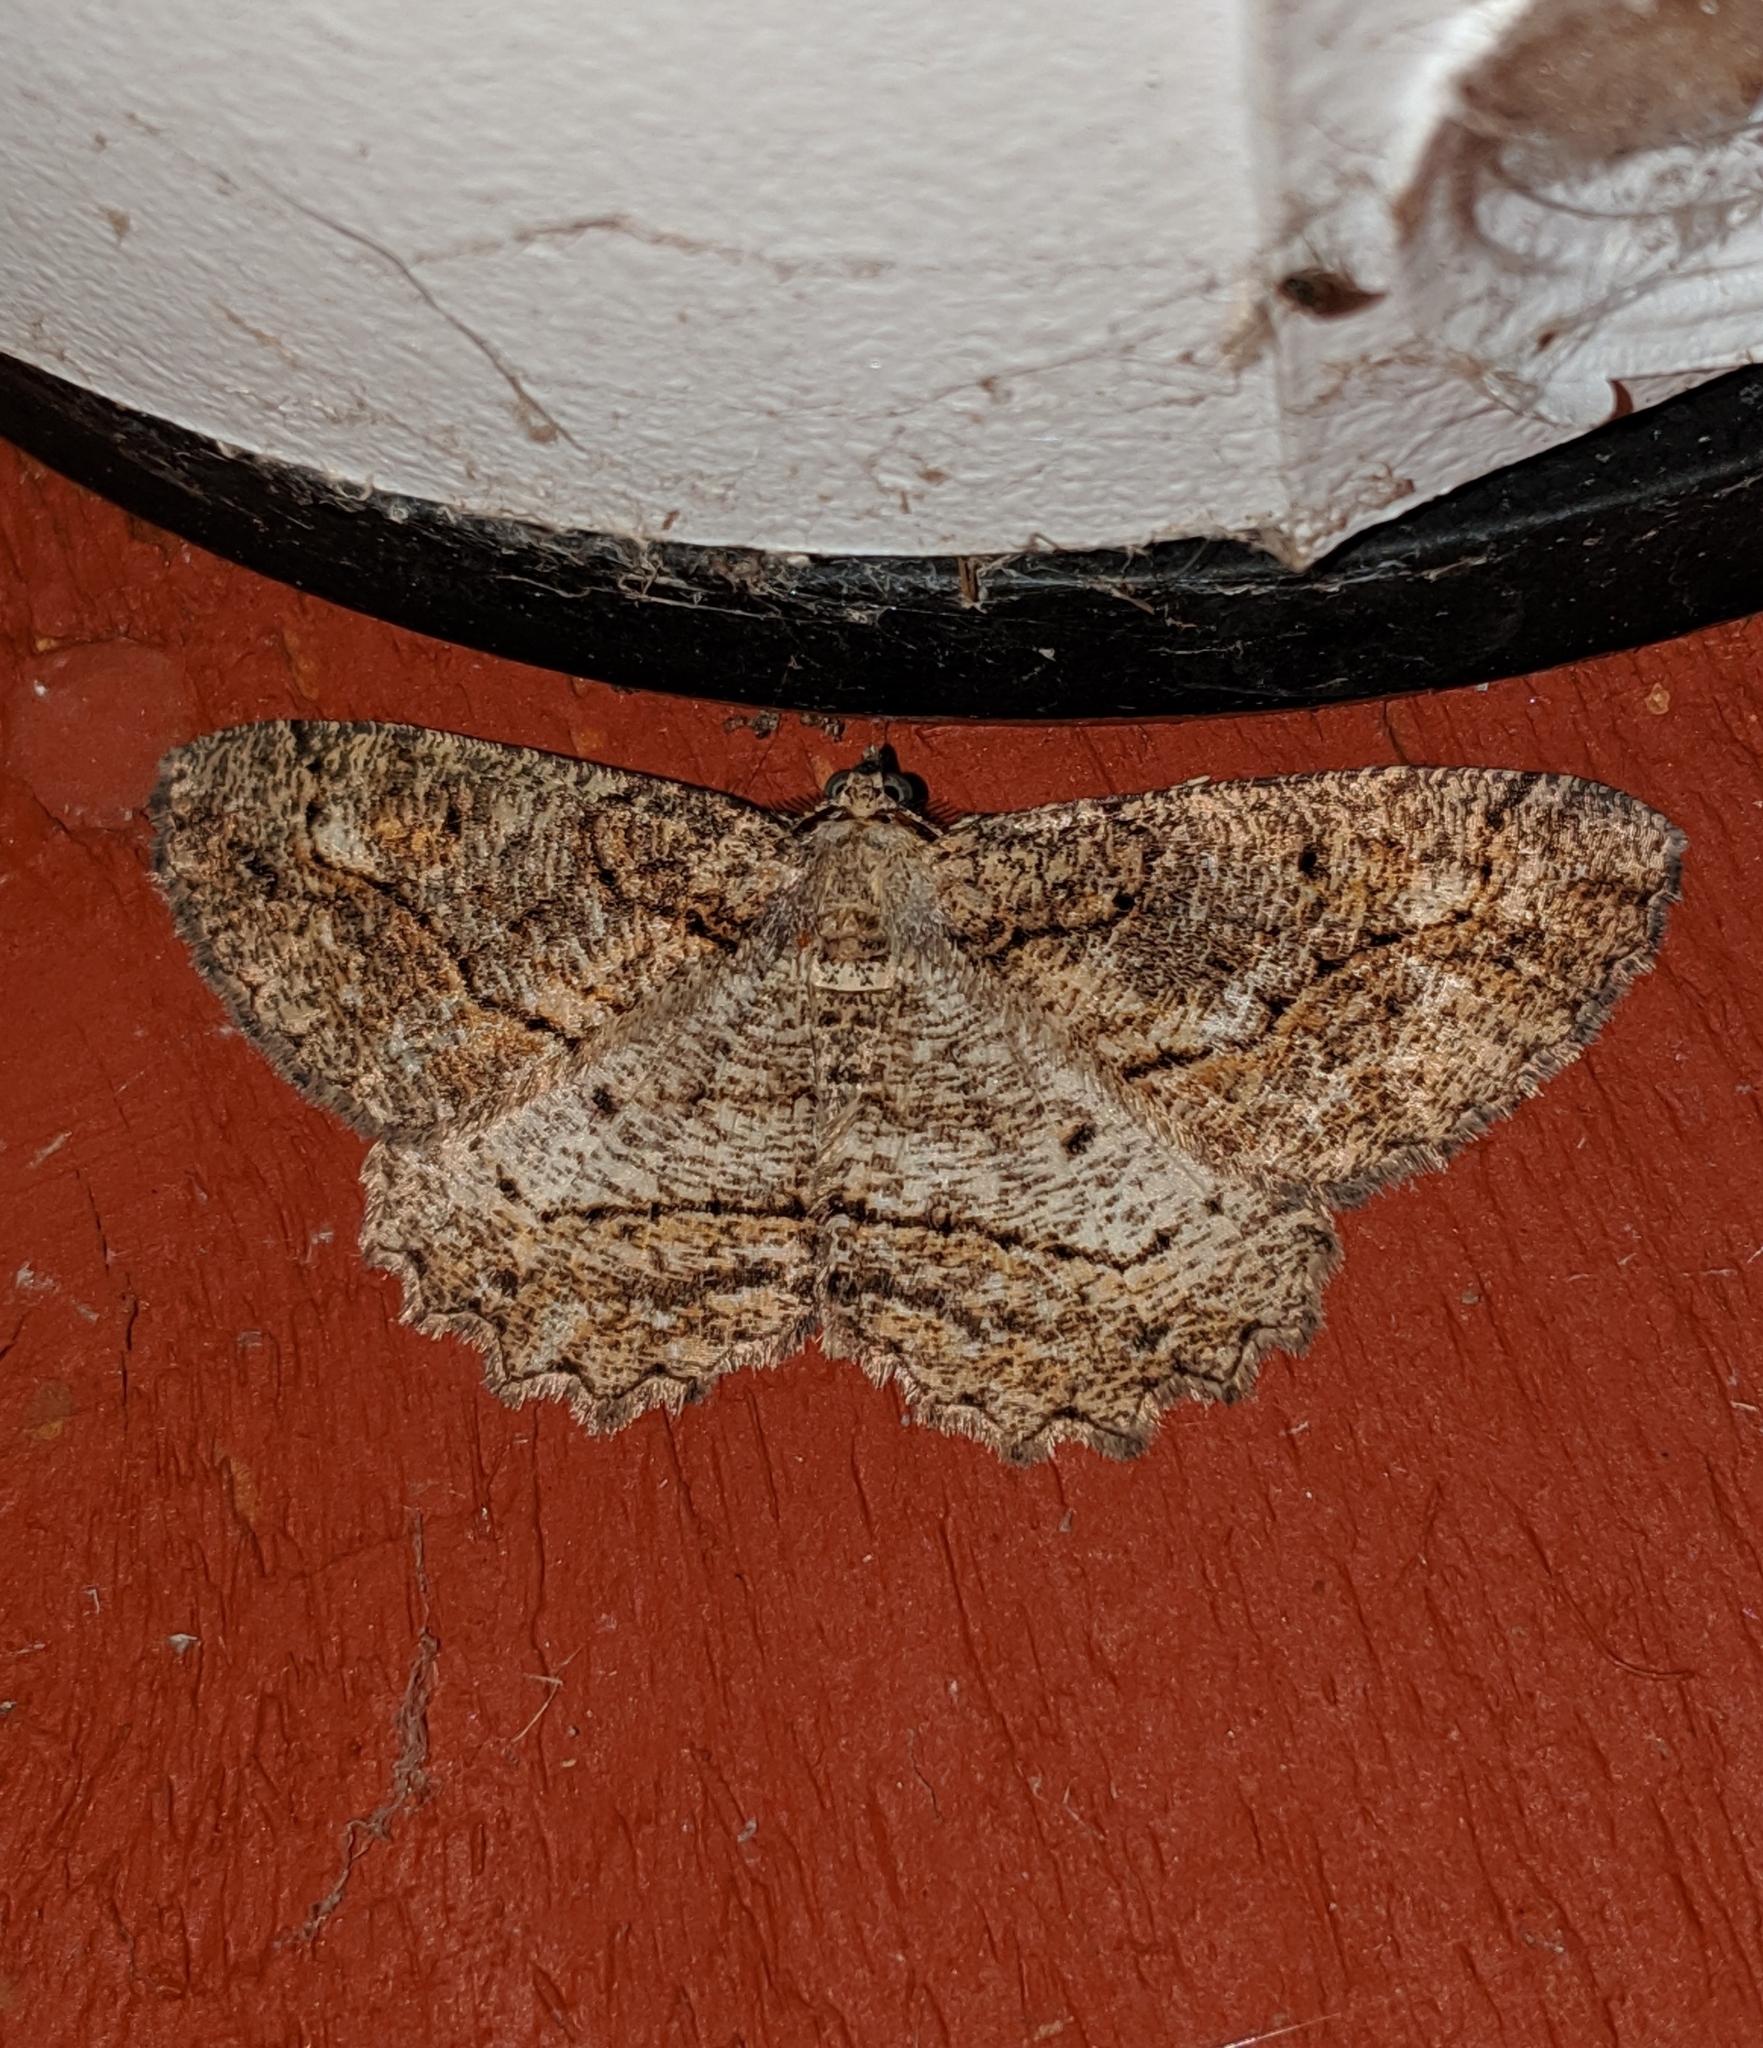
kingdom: Animalia
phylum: Arthropoda
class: Insecta
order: Lepidoptera
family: Geometridae
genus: Neoalcis
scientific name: Neoalcis californiaria
